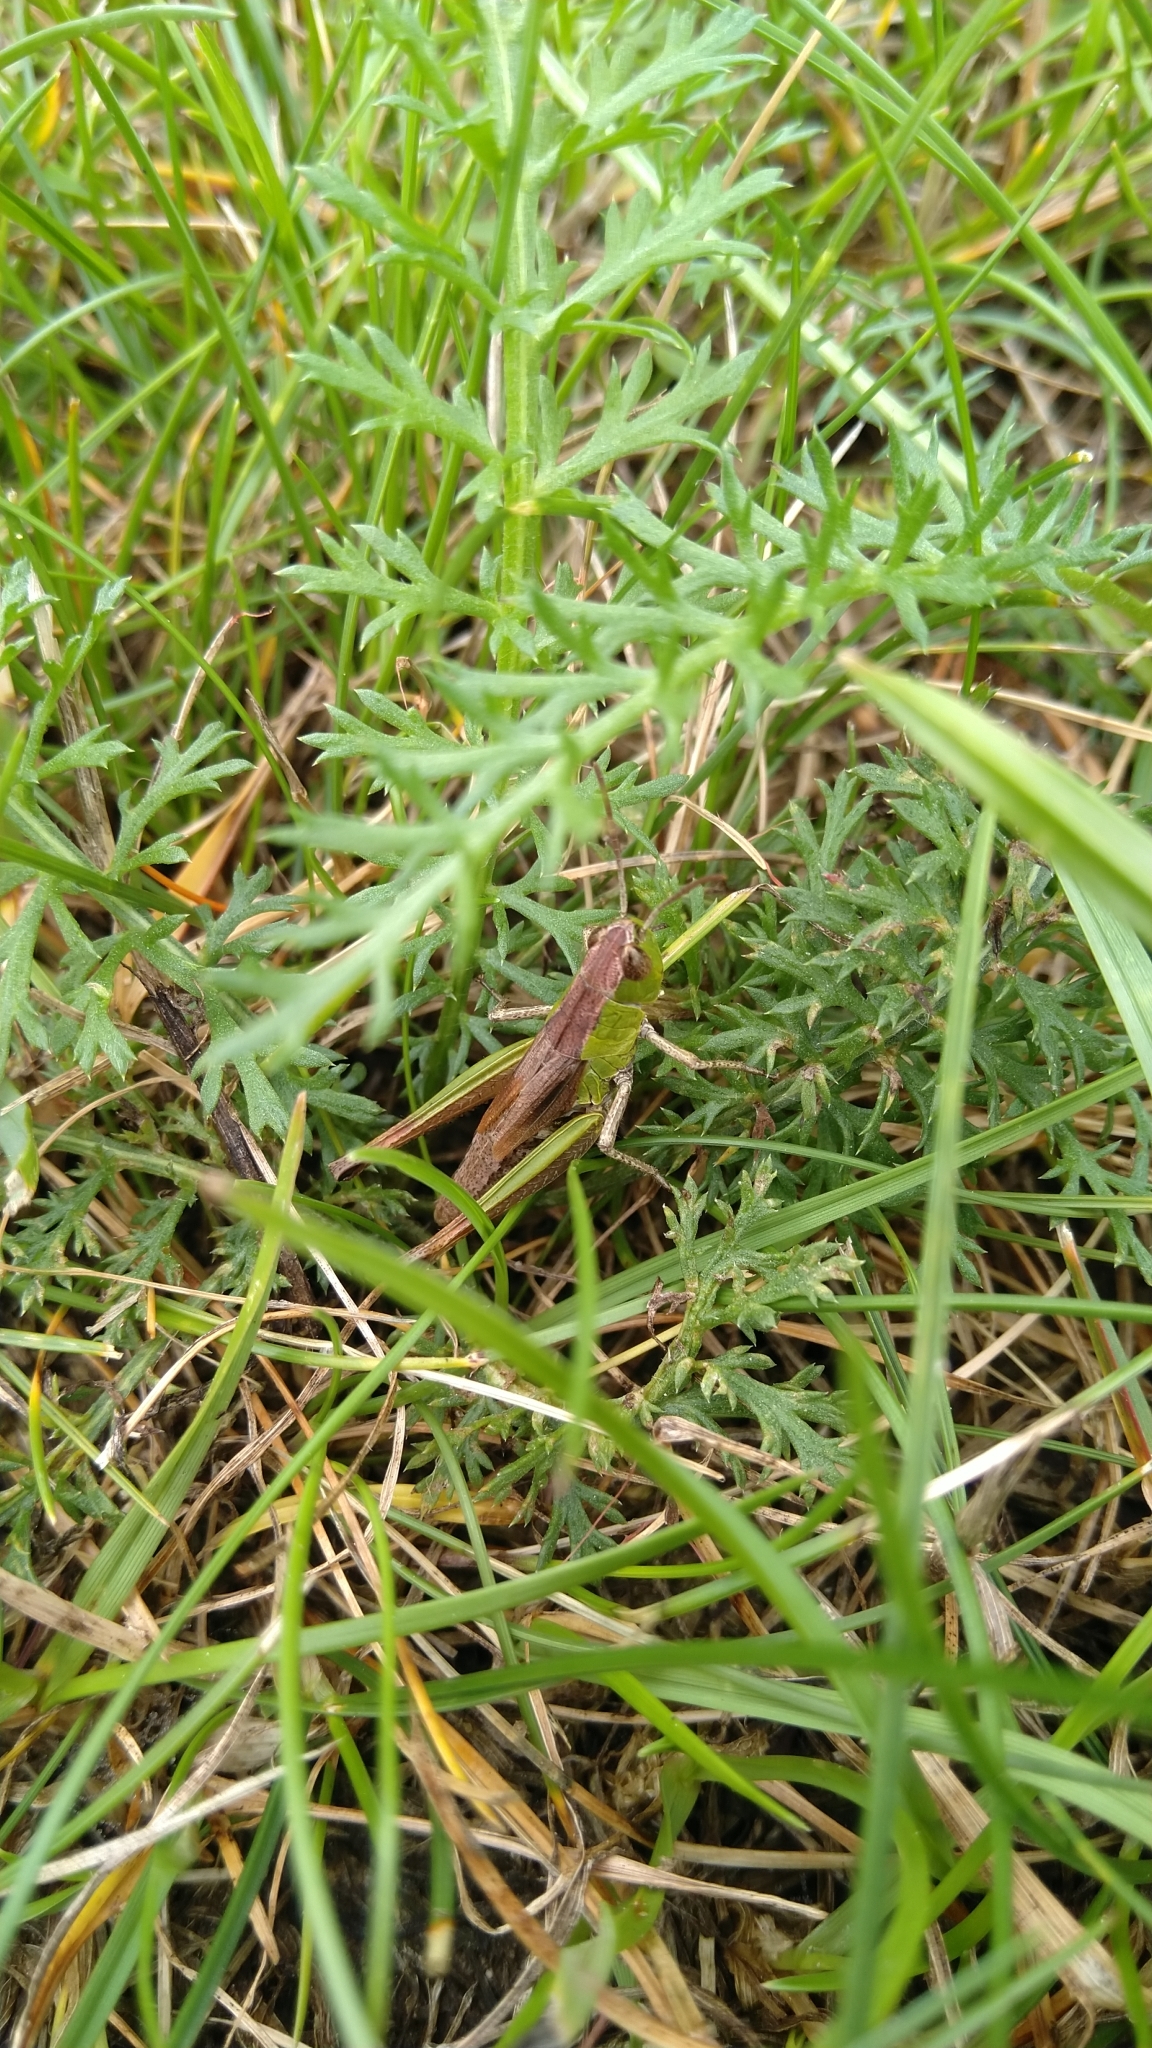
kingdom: Animalia
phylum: Arthropoda
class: Insecta
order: Orthoptera
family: Acrididae
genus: Pseudochorthippus
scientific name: Pseudochorthippus parallelus
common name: Meadow grasshopper
